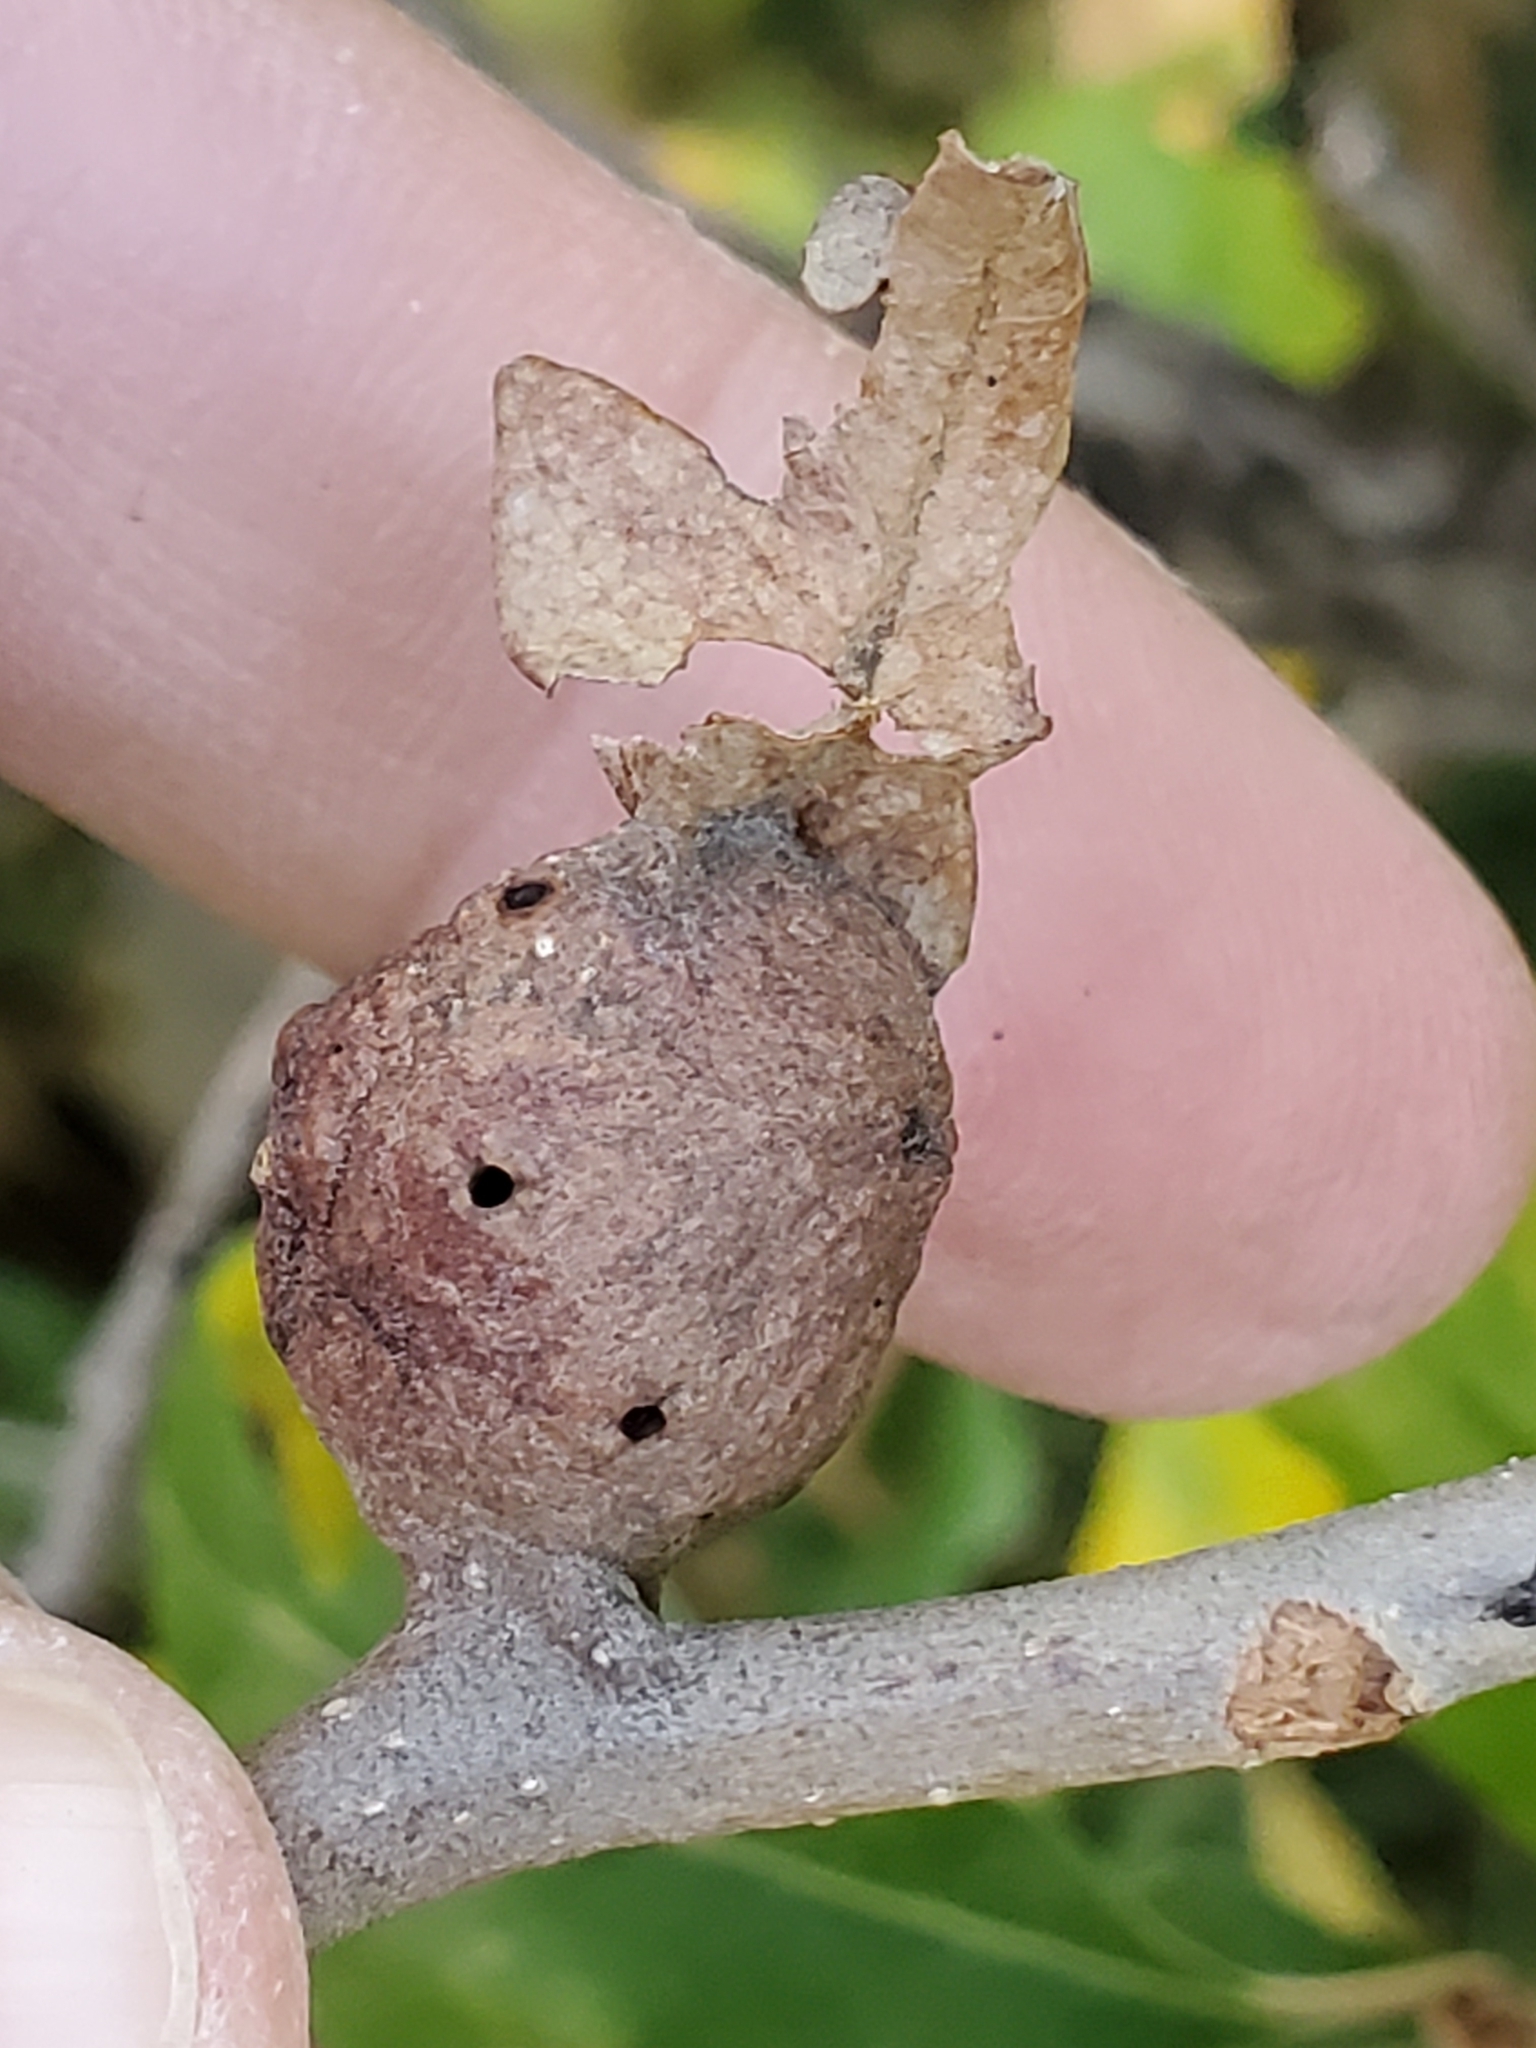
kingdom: Animalia
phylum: Arthropoda
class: Insecta
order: Hymenoptera
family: Cynipidae
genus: Andricus
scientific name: Andricus
